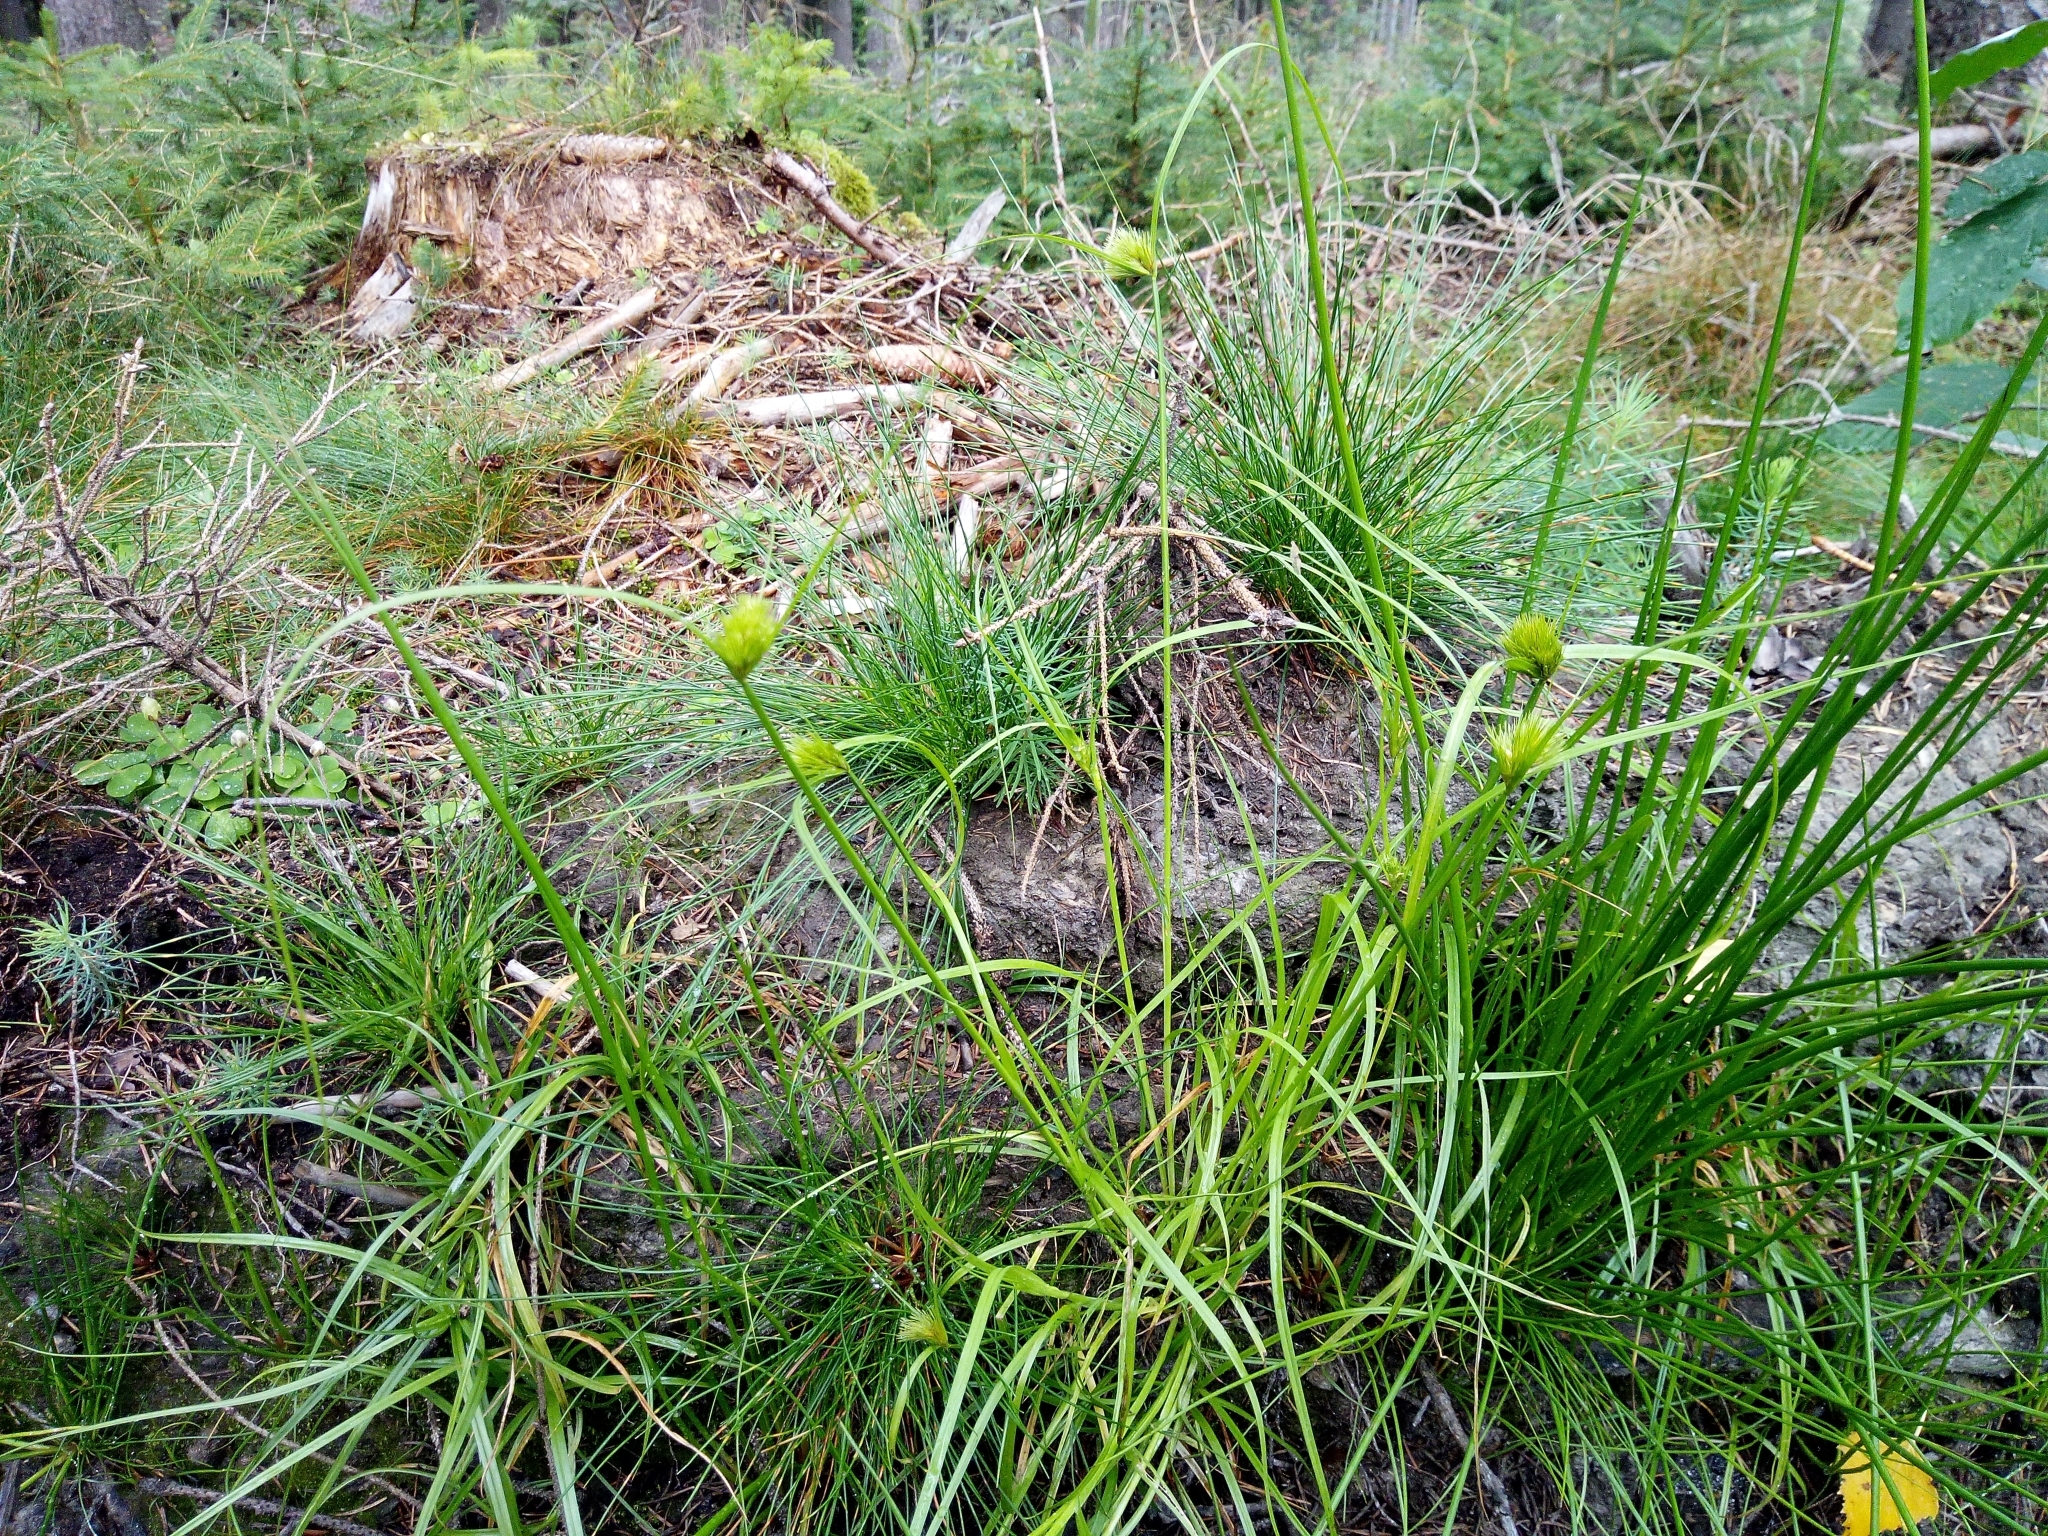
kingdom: Plantae
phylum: Tracheophyta
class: Liliopsida
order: Poales
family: Cyperaceae
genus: Carex
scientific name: Carex bohemica
